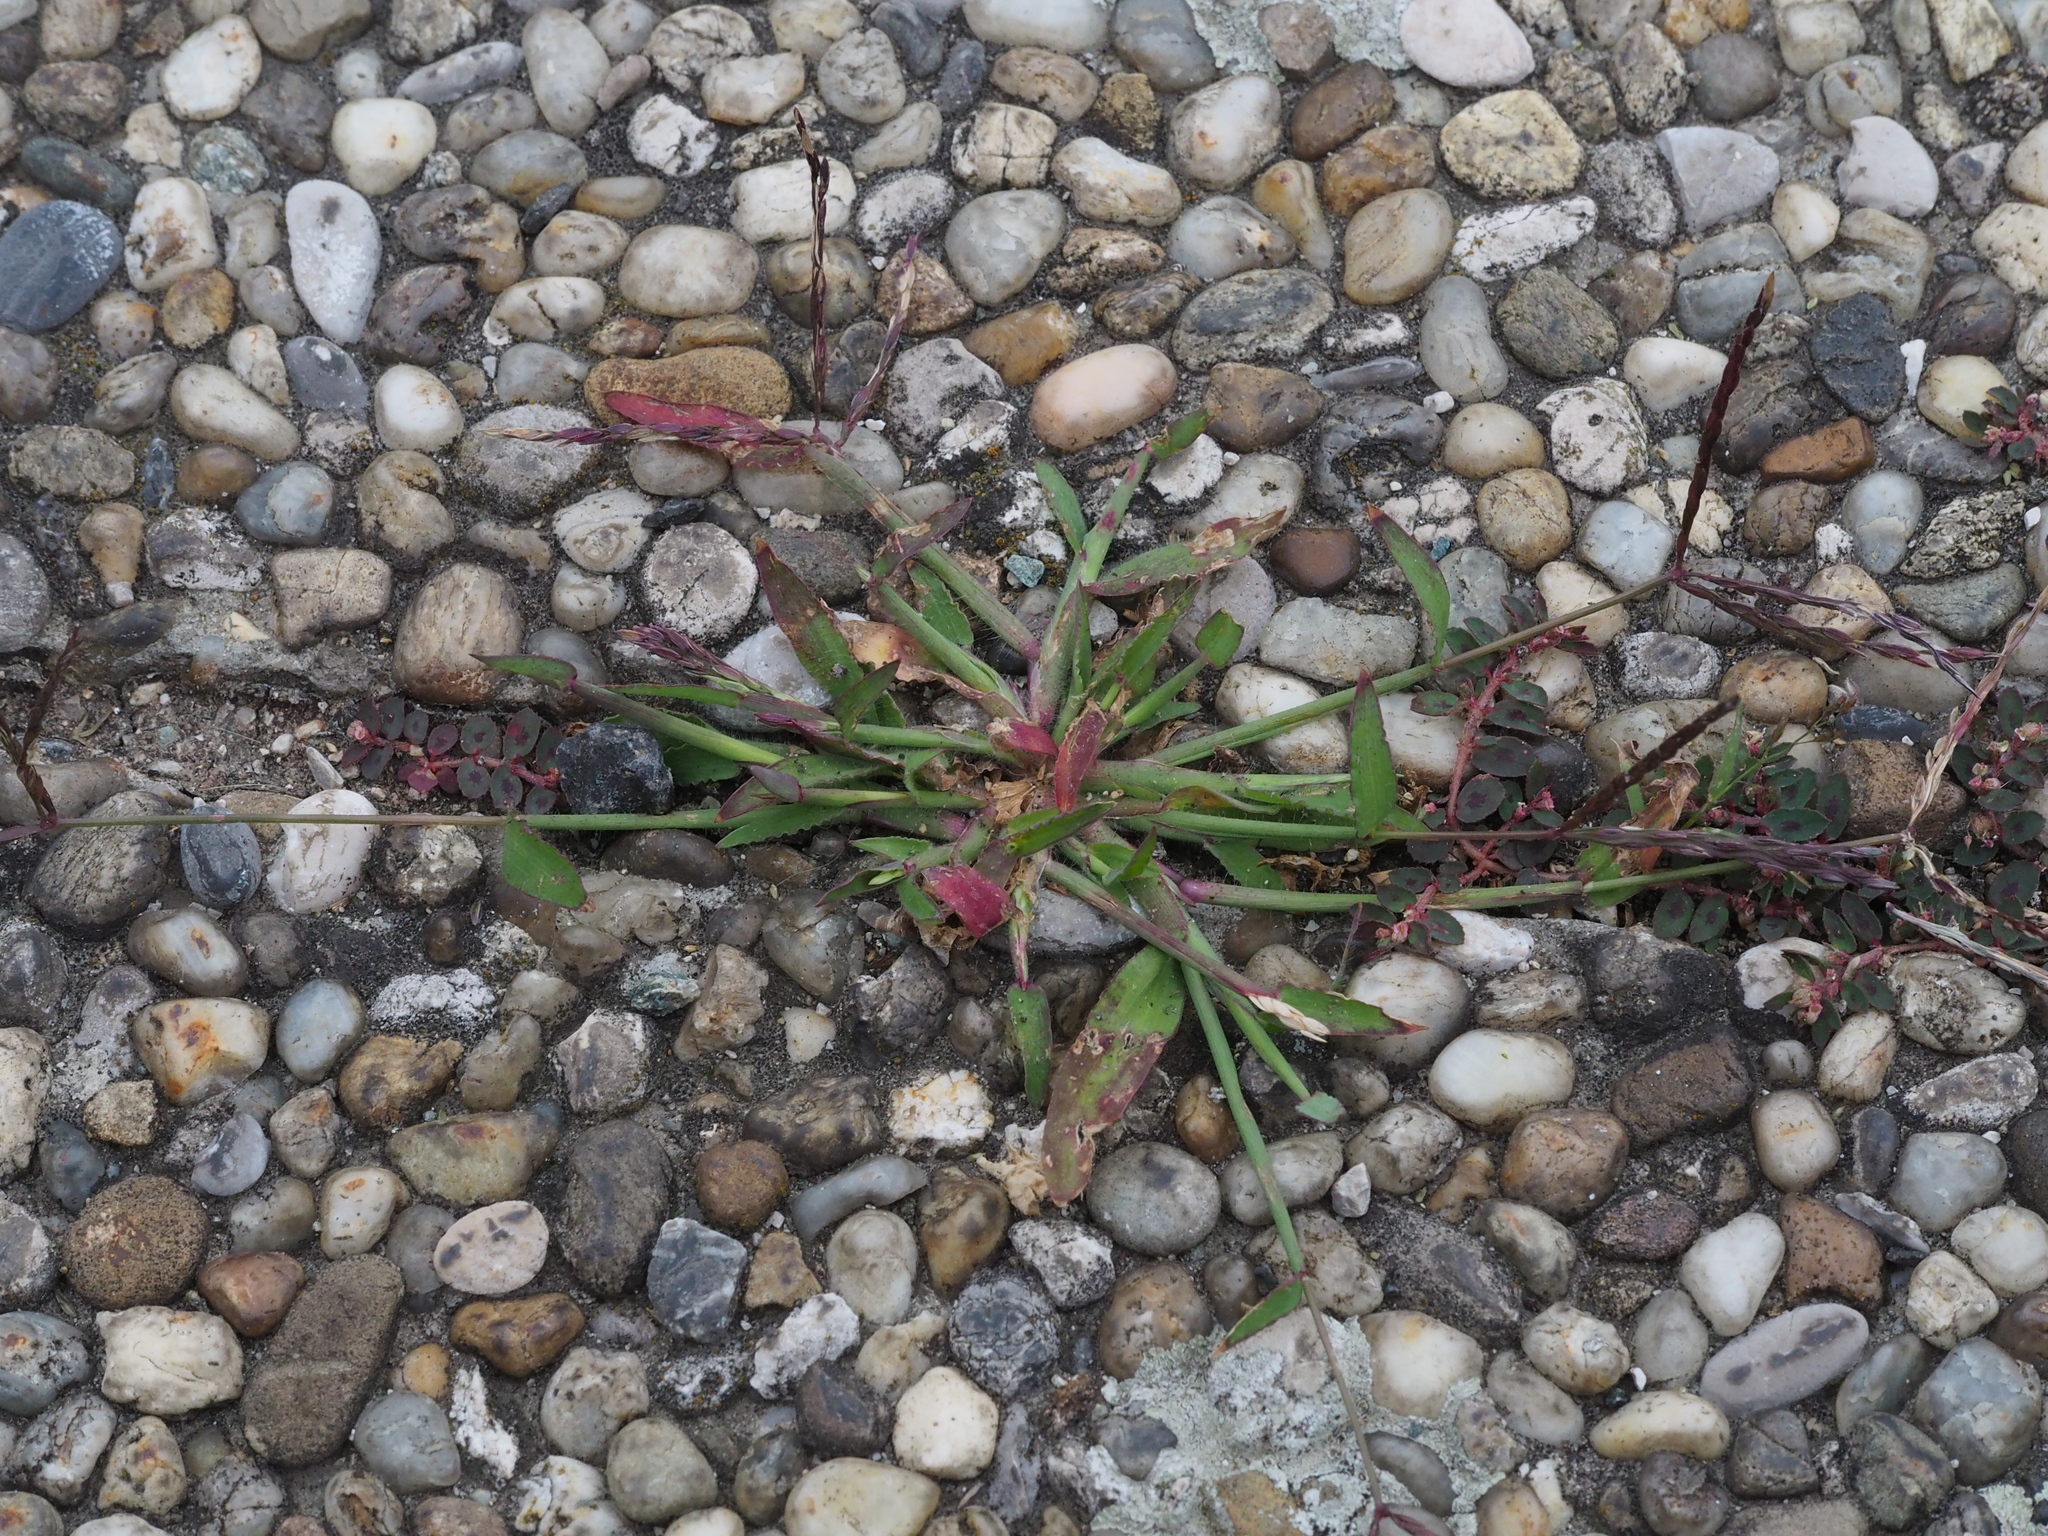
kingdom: Plantae
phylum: Tracheophyta
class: Liliopsida
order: Poales
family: Poaceae
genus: Digitaria
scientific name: Digitaria sanguinalis
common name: Hairy crabgrass
